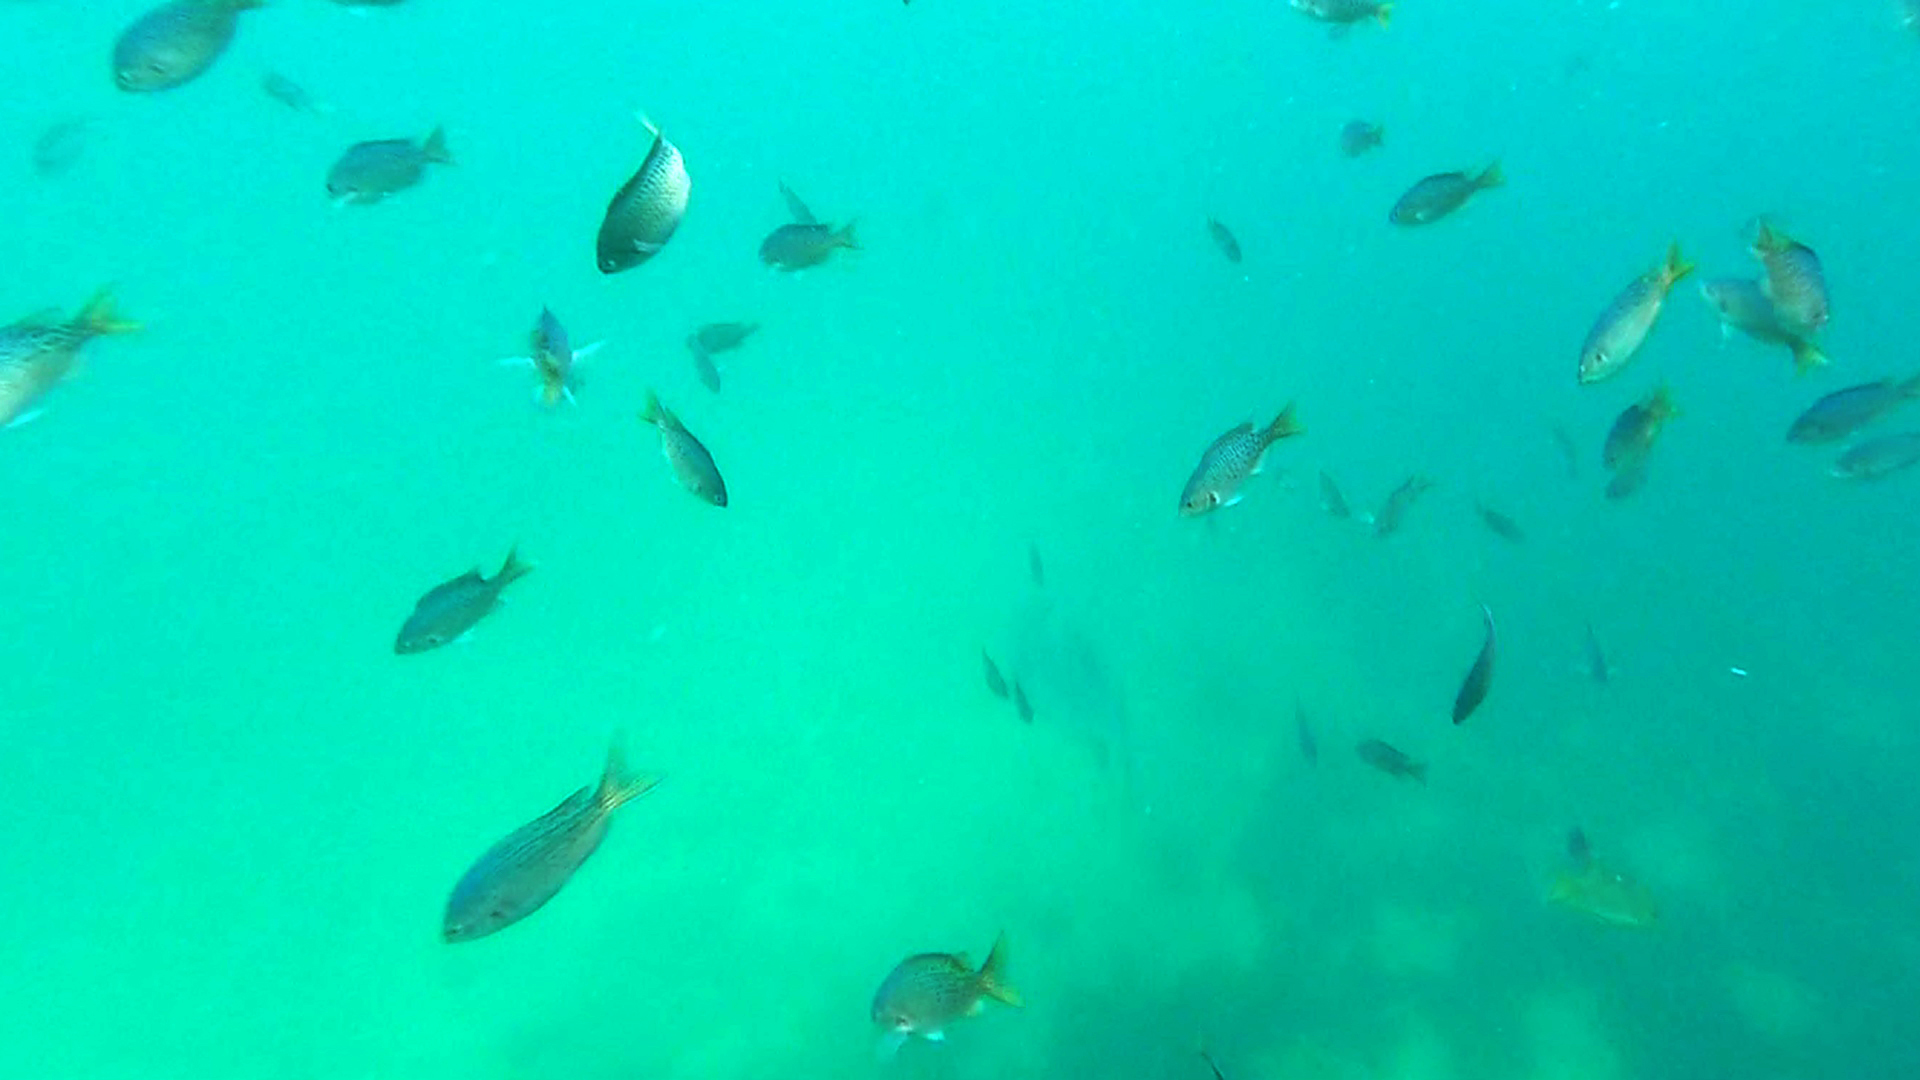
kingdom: Animalia
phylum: Chordata
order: Perciformes
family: Pomacentridae
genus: Chromis
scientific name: Chromis punctipinnis
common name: Blacksmith
